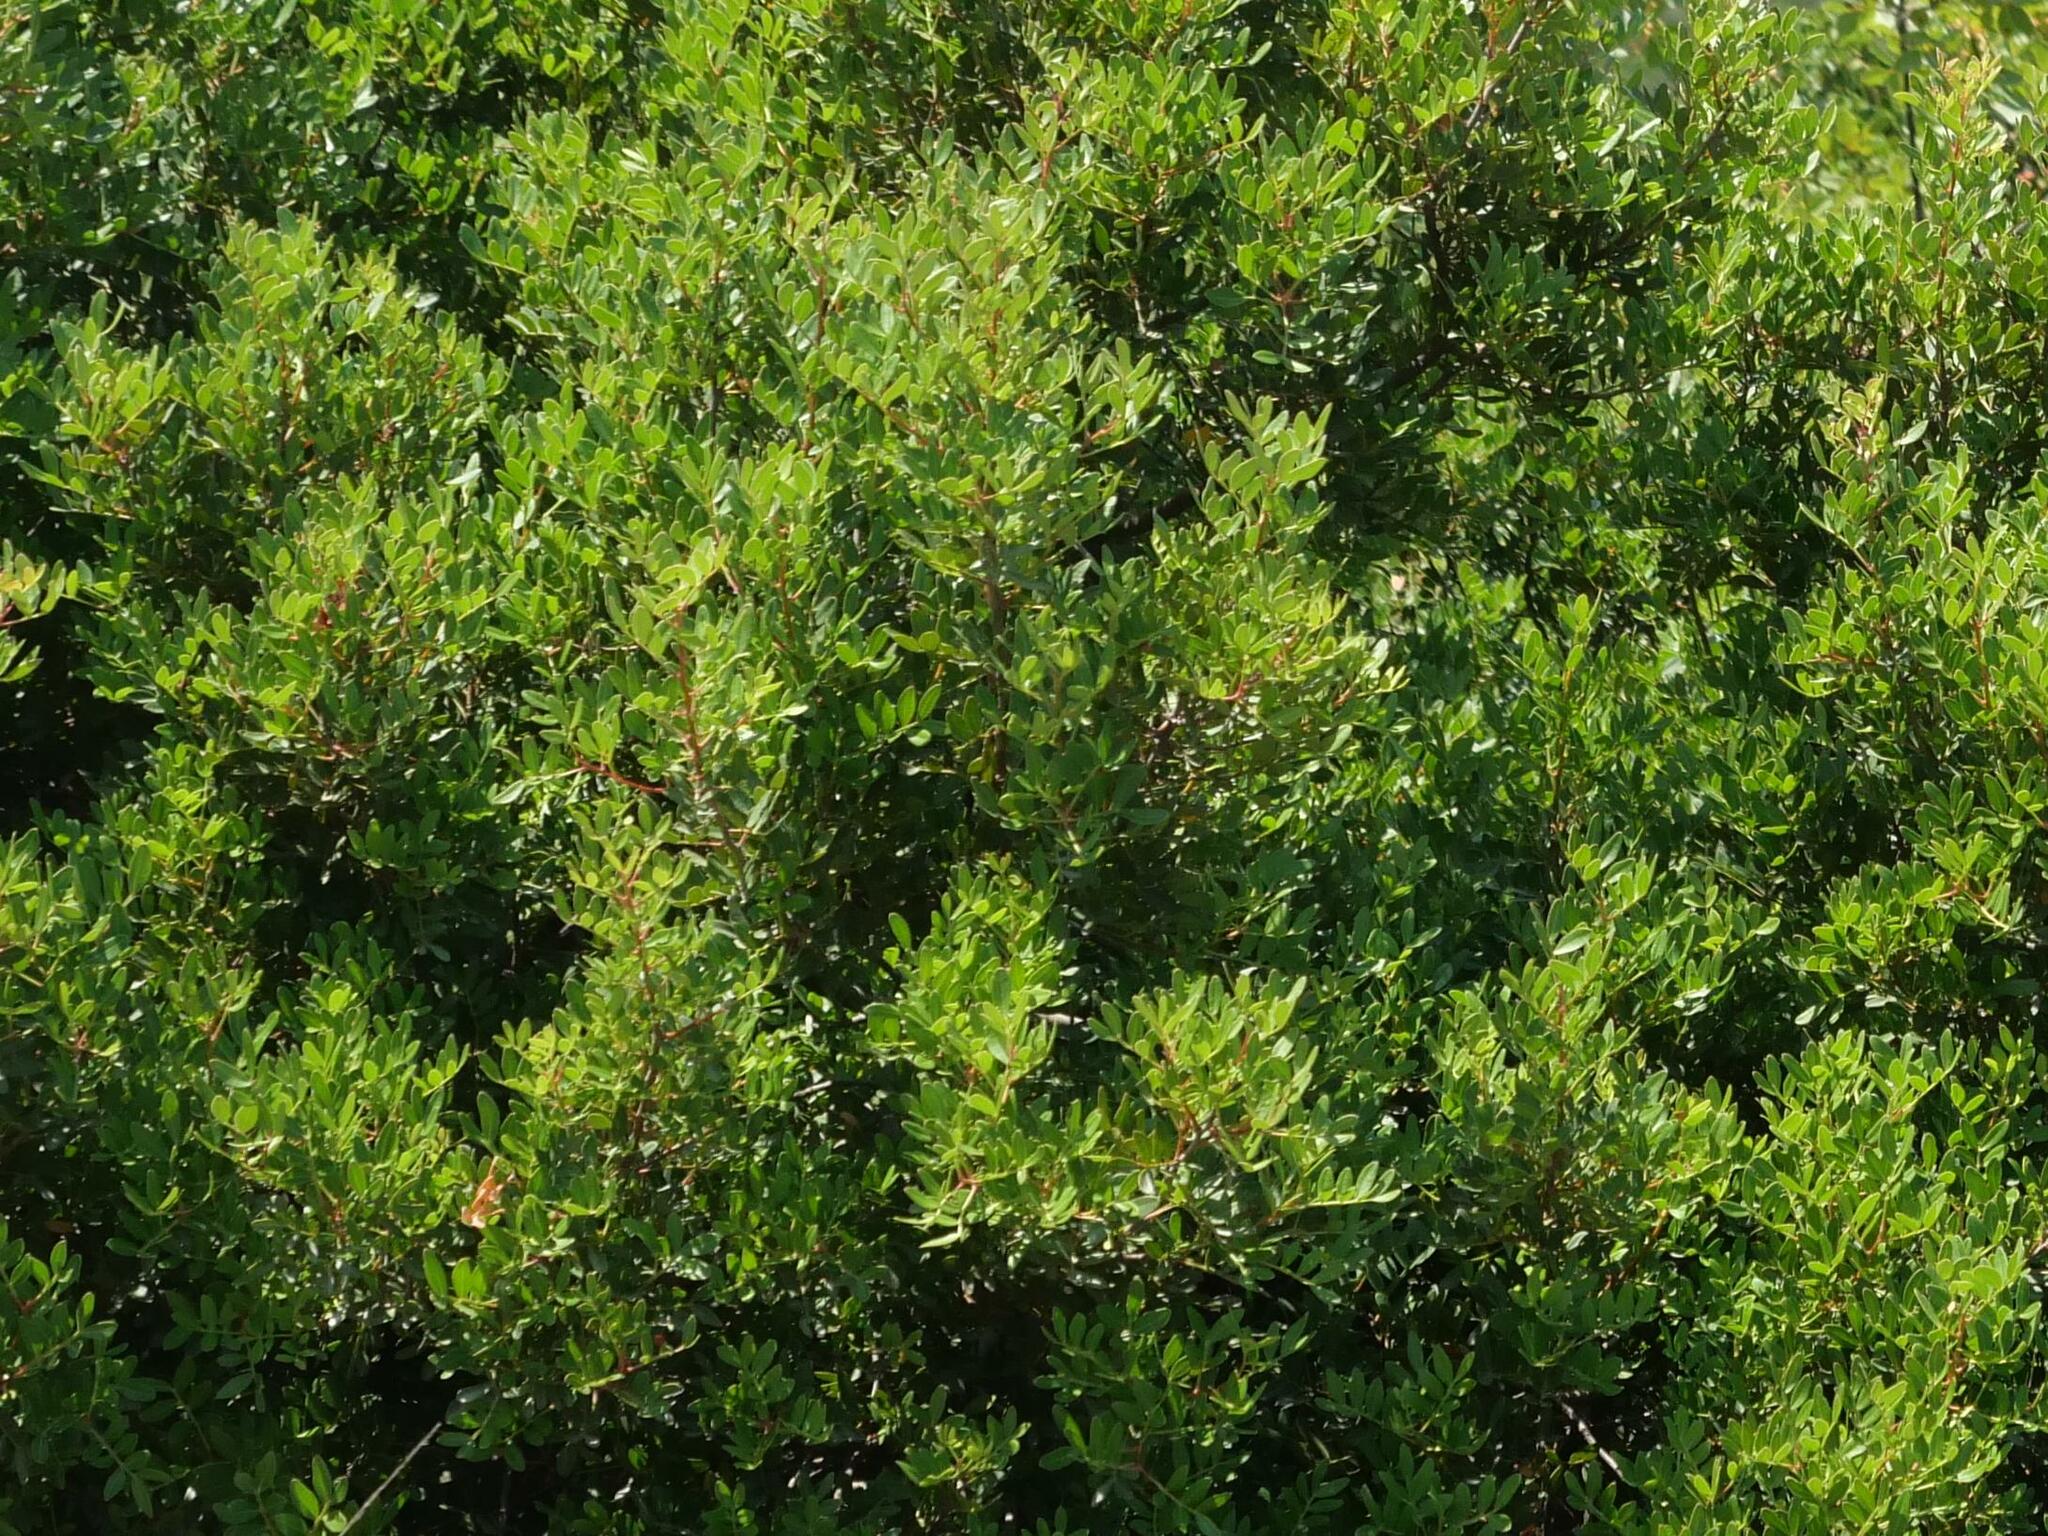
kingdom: Plantae
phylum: Tracheophyta
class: Magnoliopsida
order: Sapindales
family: Anacardiaceae
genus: Pistacia
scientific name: Pistacia lentiscus
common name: Lentisk
